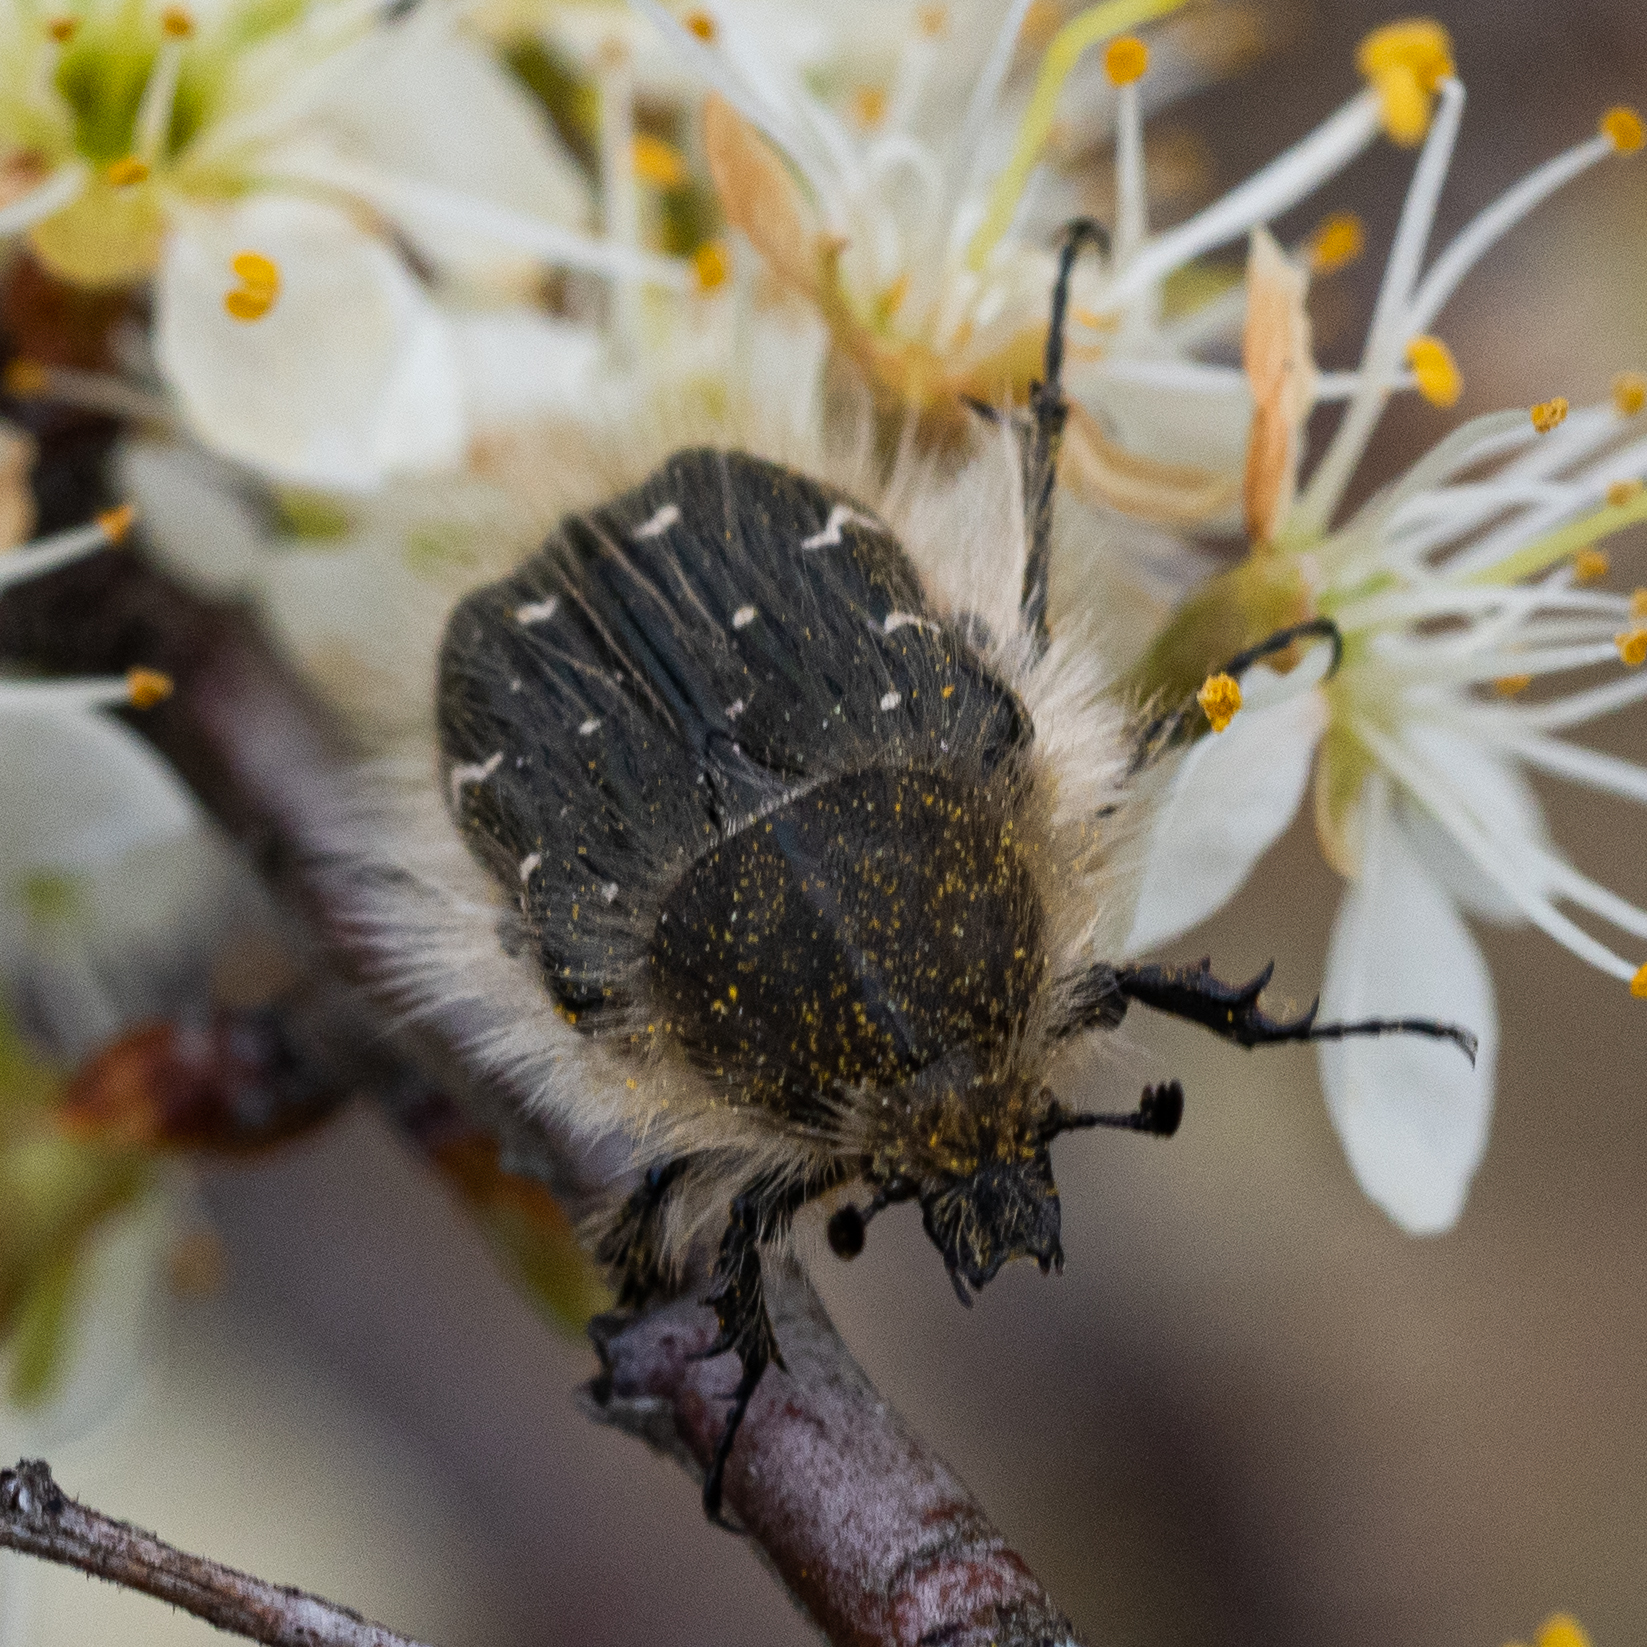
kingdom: Animalia
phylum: Arthropoda
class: Insecta
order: Coleoptera
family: Scarabaeidae
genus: Tropinota
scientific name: Tropinota hirta
